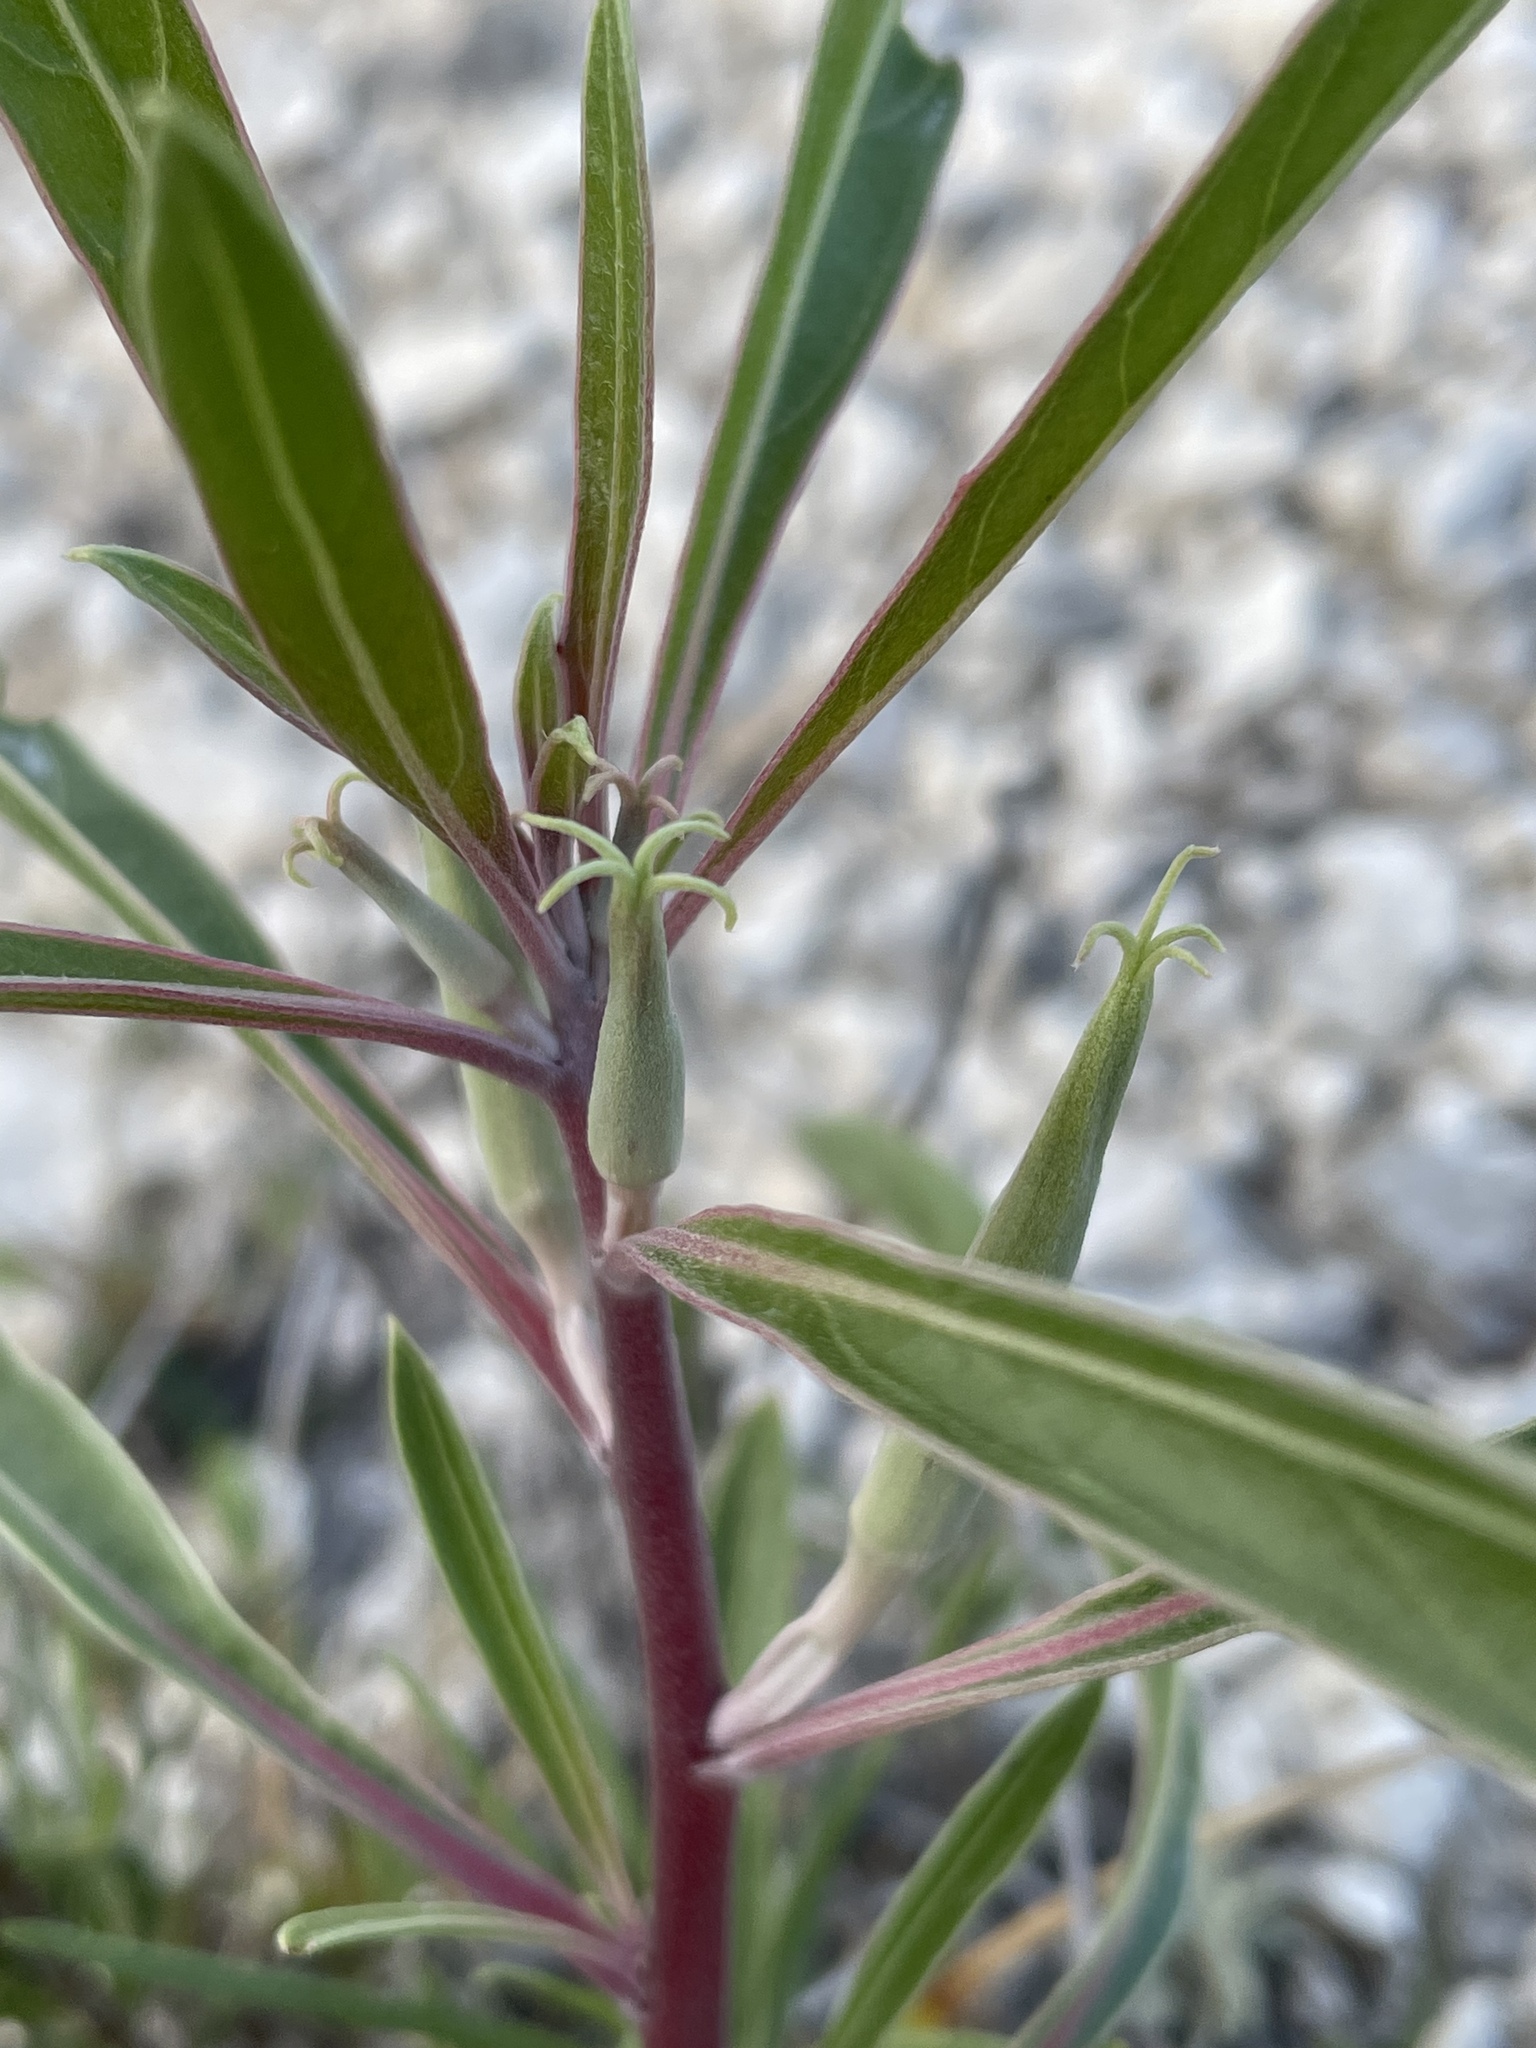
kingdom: Plantae
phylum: Tracheophyta
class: Magnoliopsida
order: Myrtales
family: Onagraceae
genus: Oenothera
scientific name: Oenothera macrocarpa
